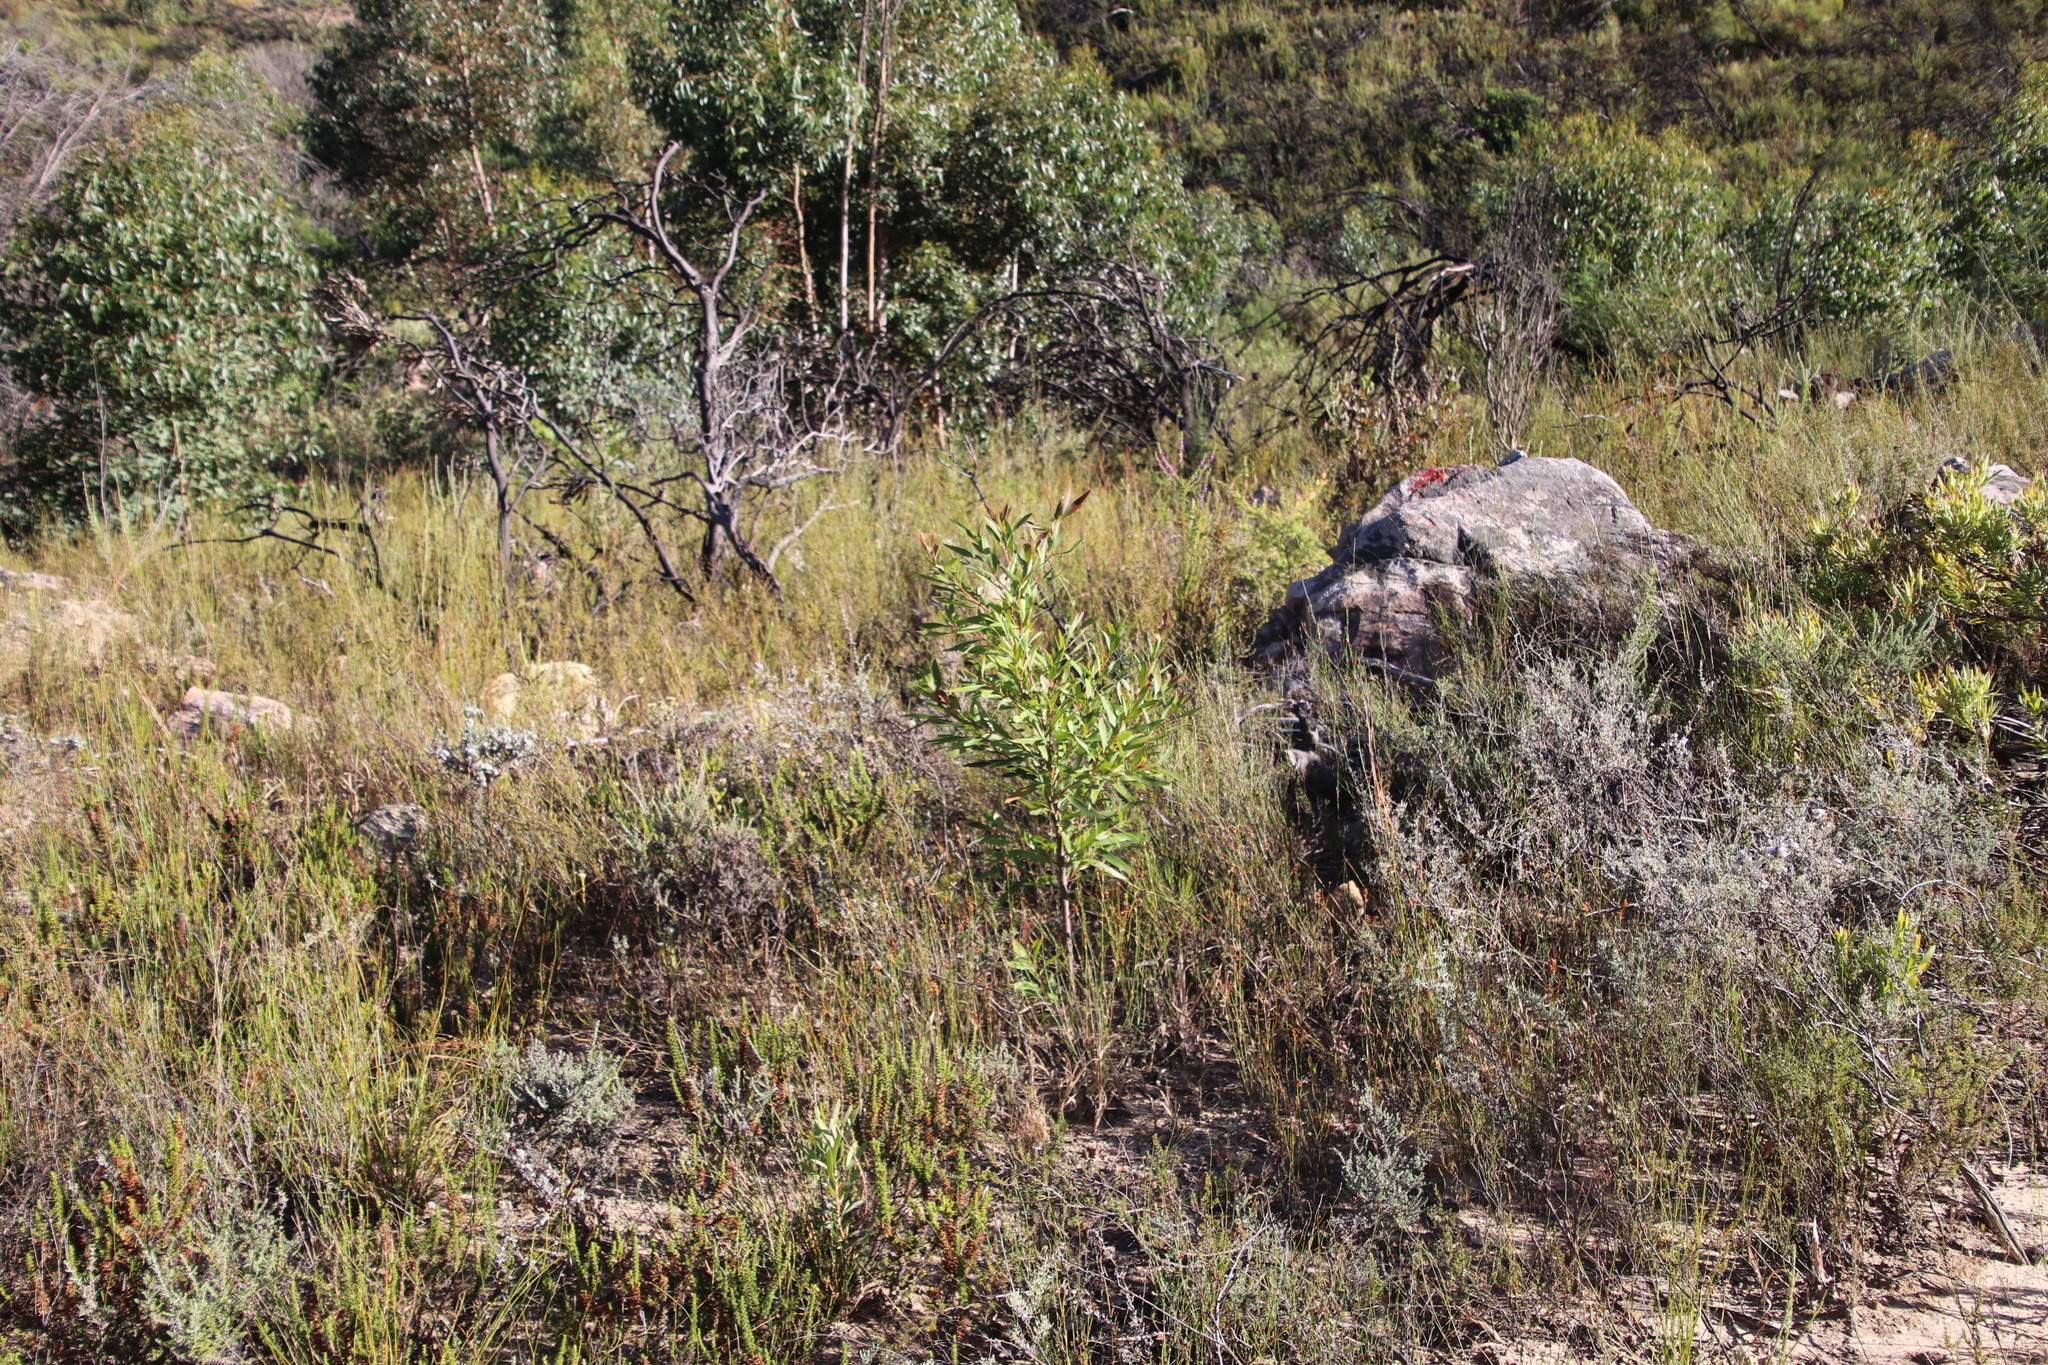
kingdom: Plantae
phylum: Tracheophyta
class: Magnoliopsida
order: Proteales
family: Proteaceae
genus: Hakea
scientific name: Hakea salicifolia
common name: Willow hakea
